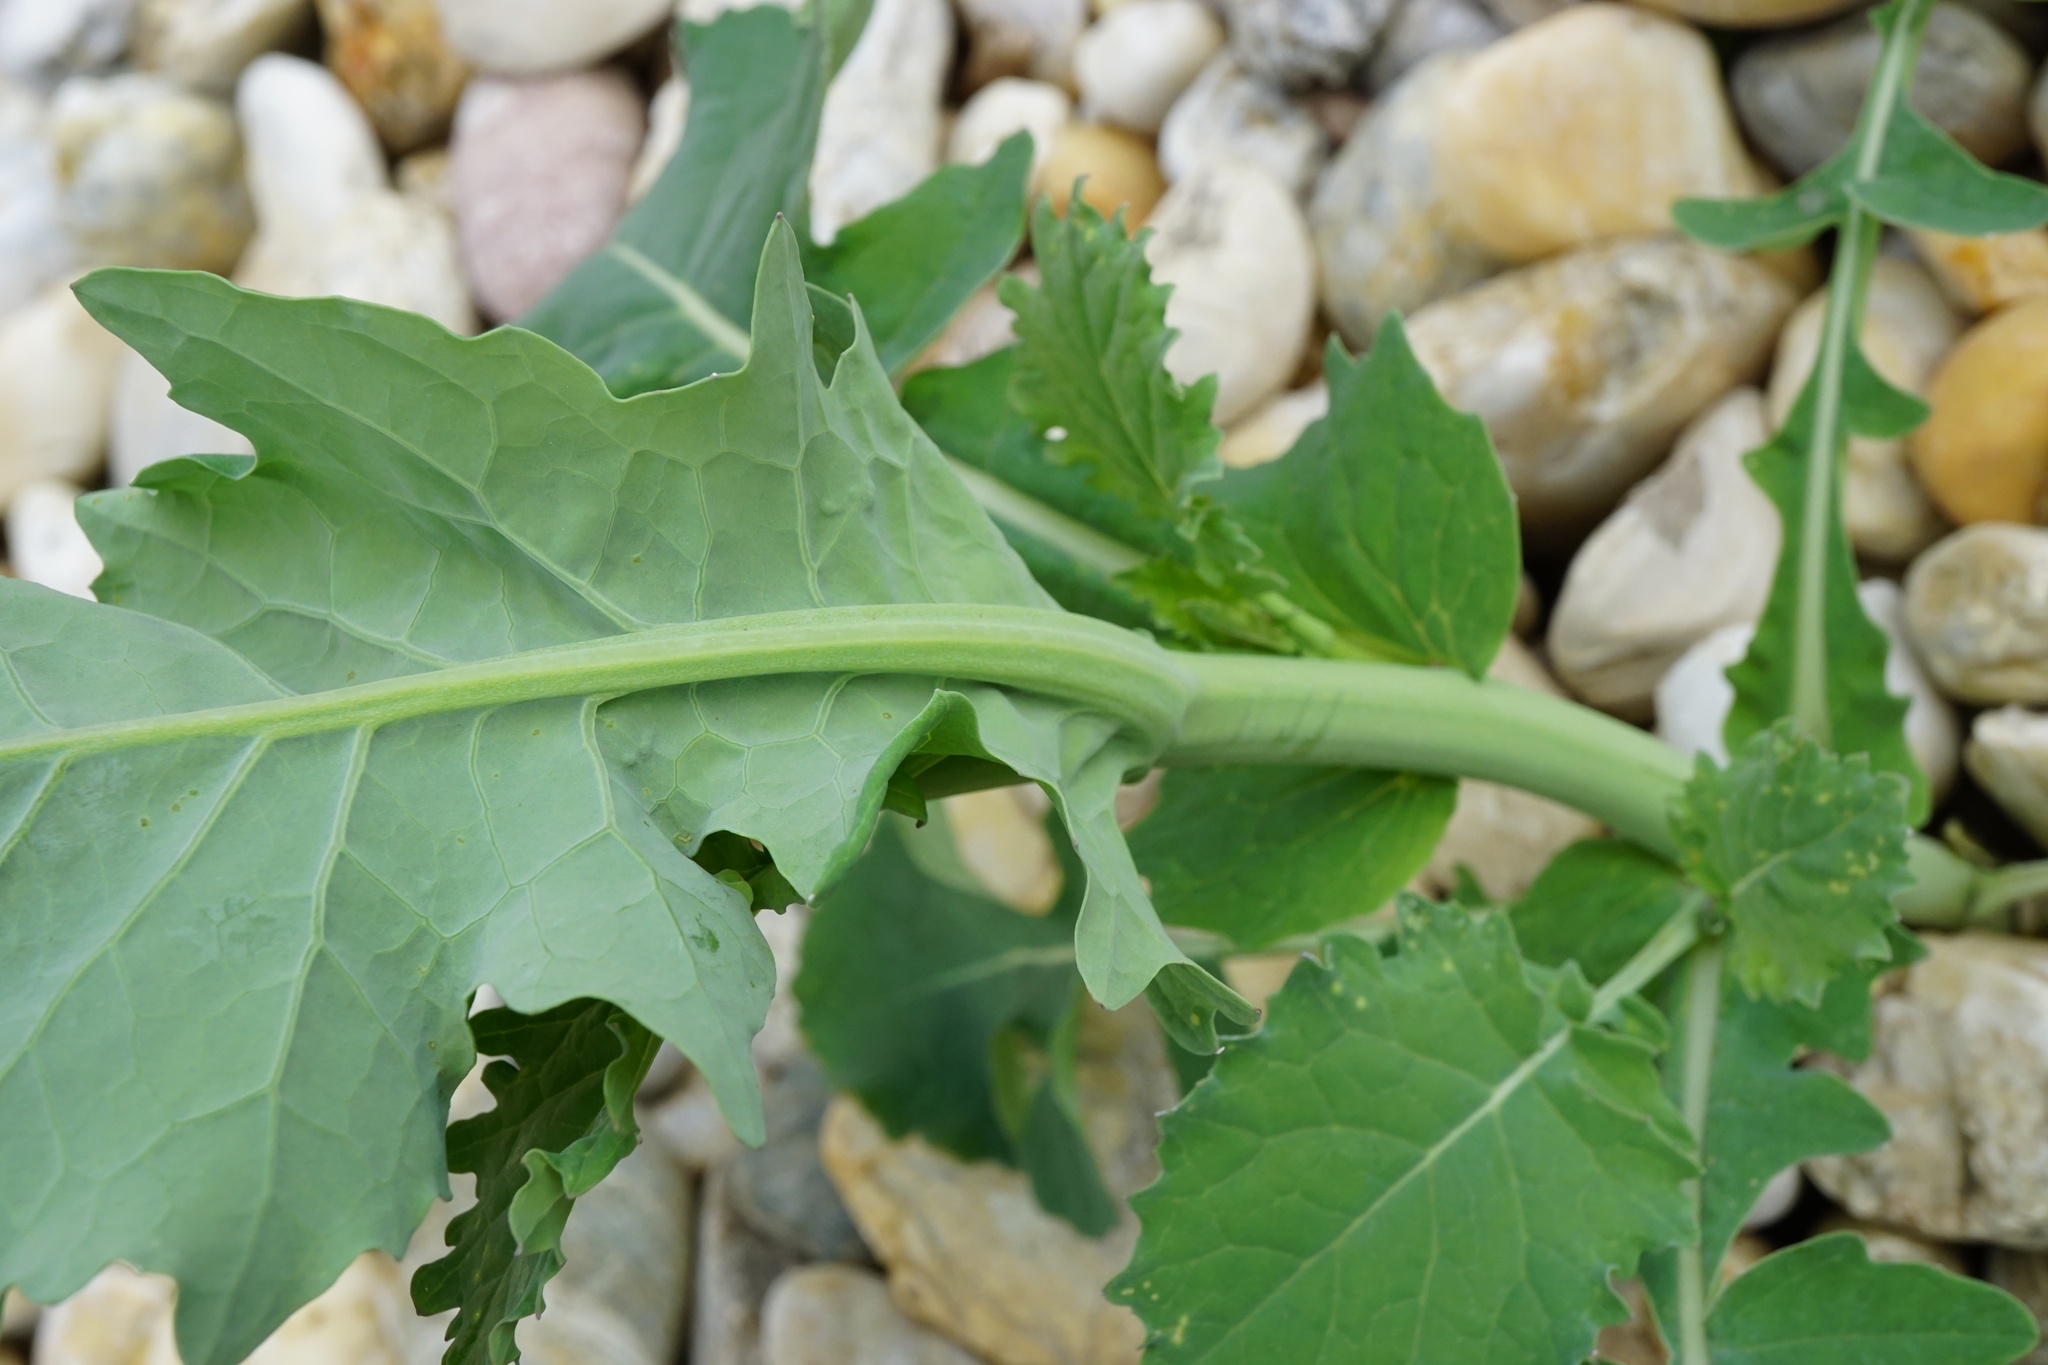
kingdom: Plantae
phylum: Tracheophyta
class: Magnoliopsida
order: Brassicales
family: Brassicaceae
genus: Brassica
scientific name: Brassica napus
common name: Rape
